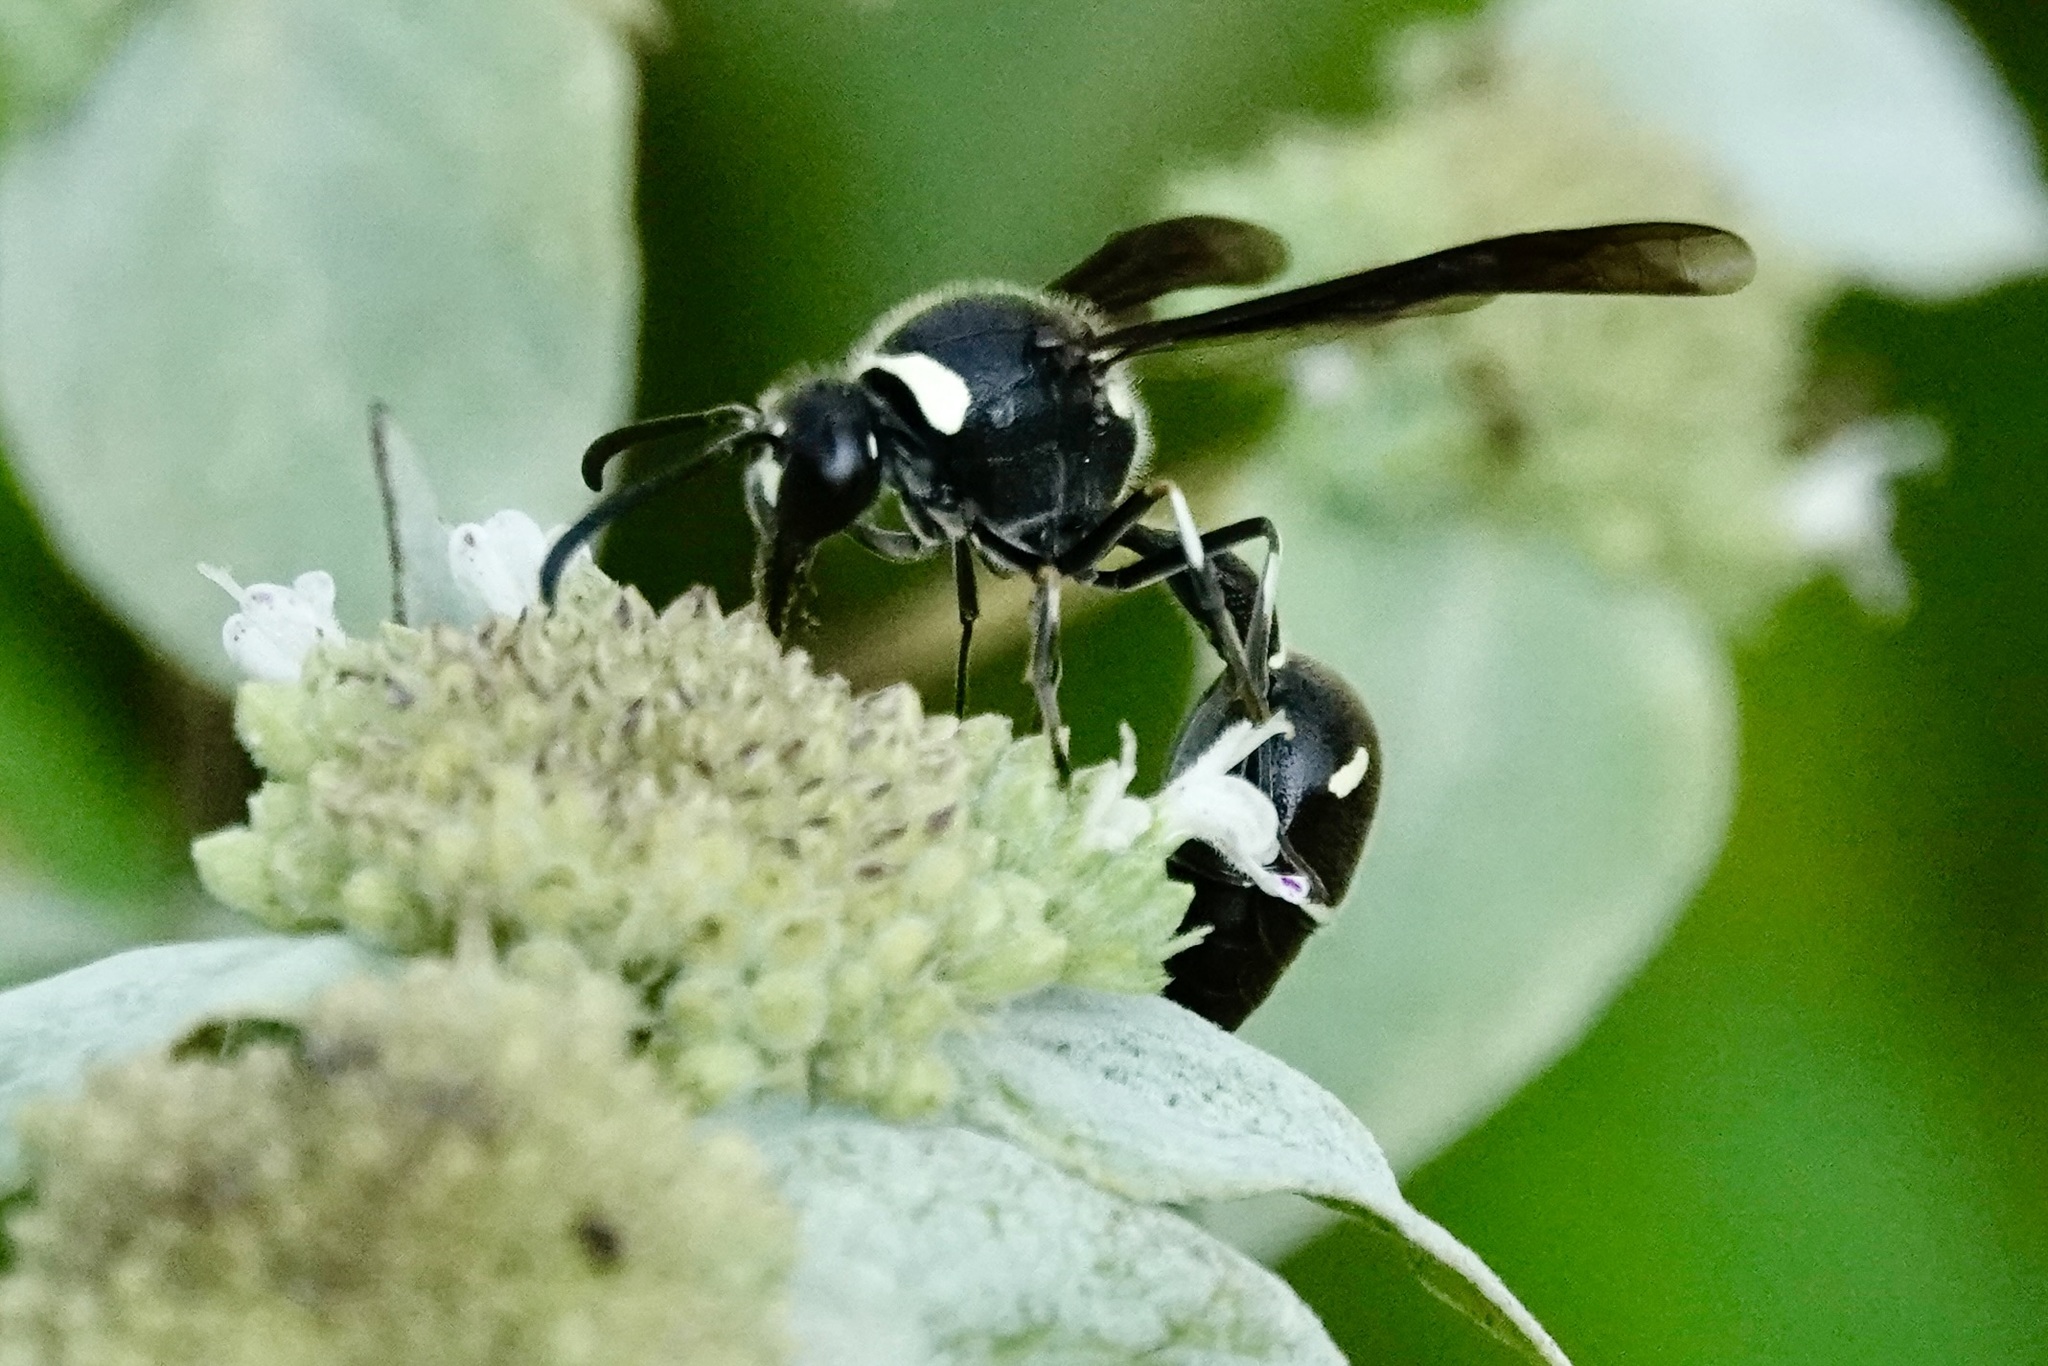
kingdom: Animalia
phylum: Arthropoda
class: Insecta
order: Hymenoptera
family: Vespidae
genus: Eumenes
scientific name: Eumenes fraternus
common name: Fraternal potter wasp
